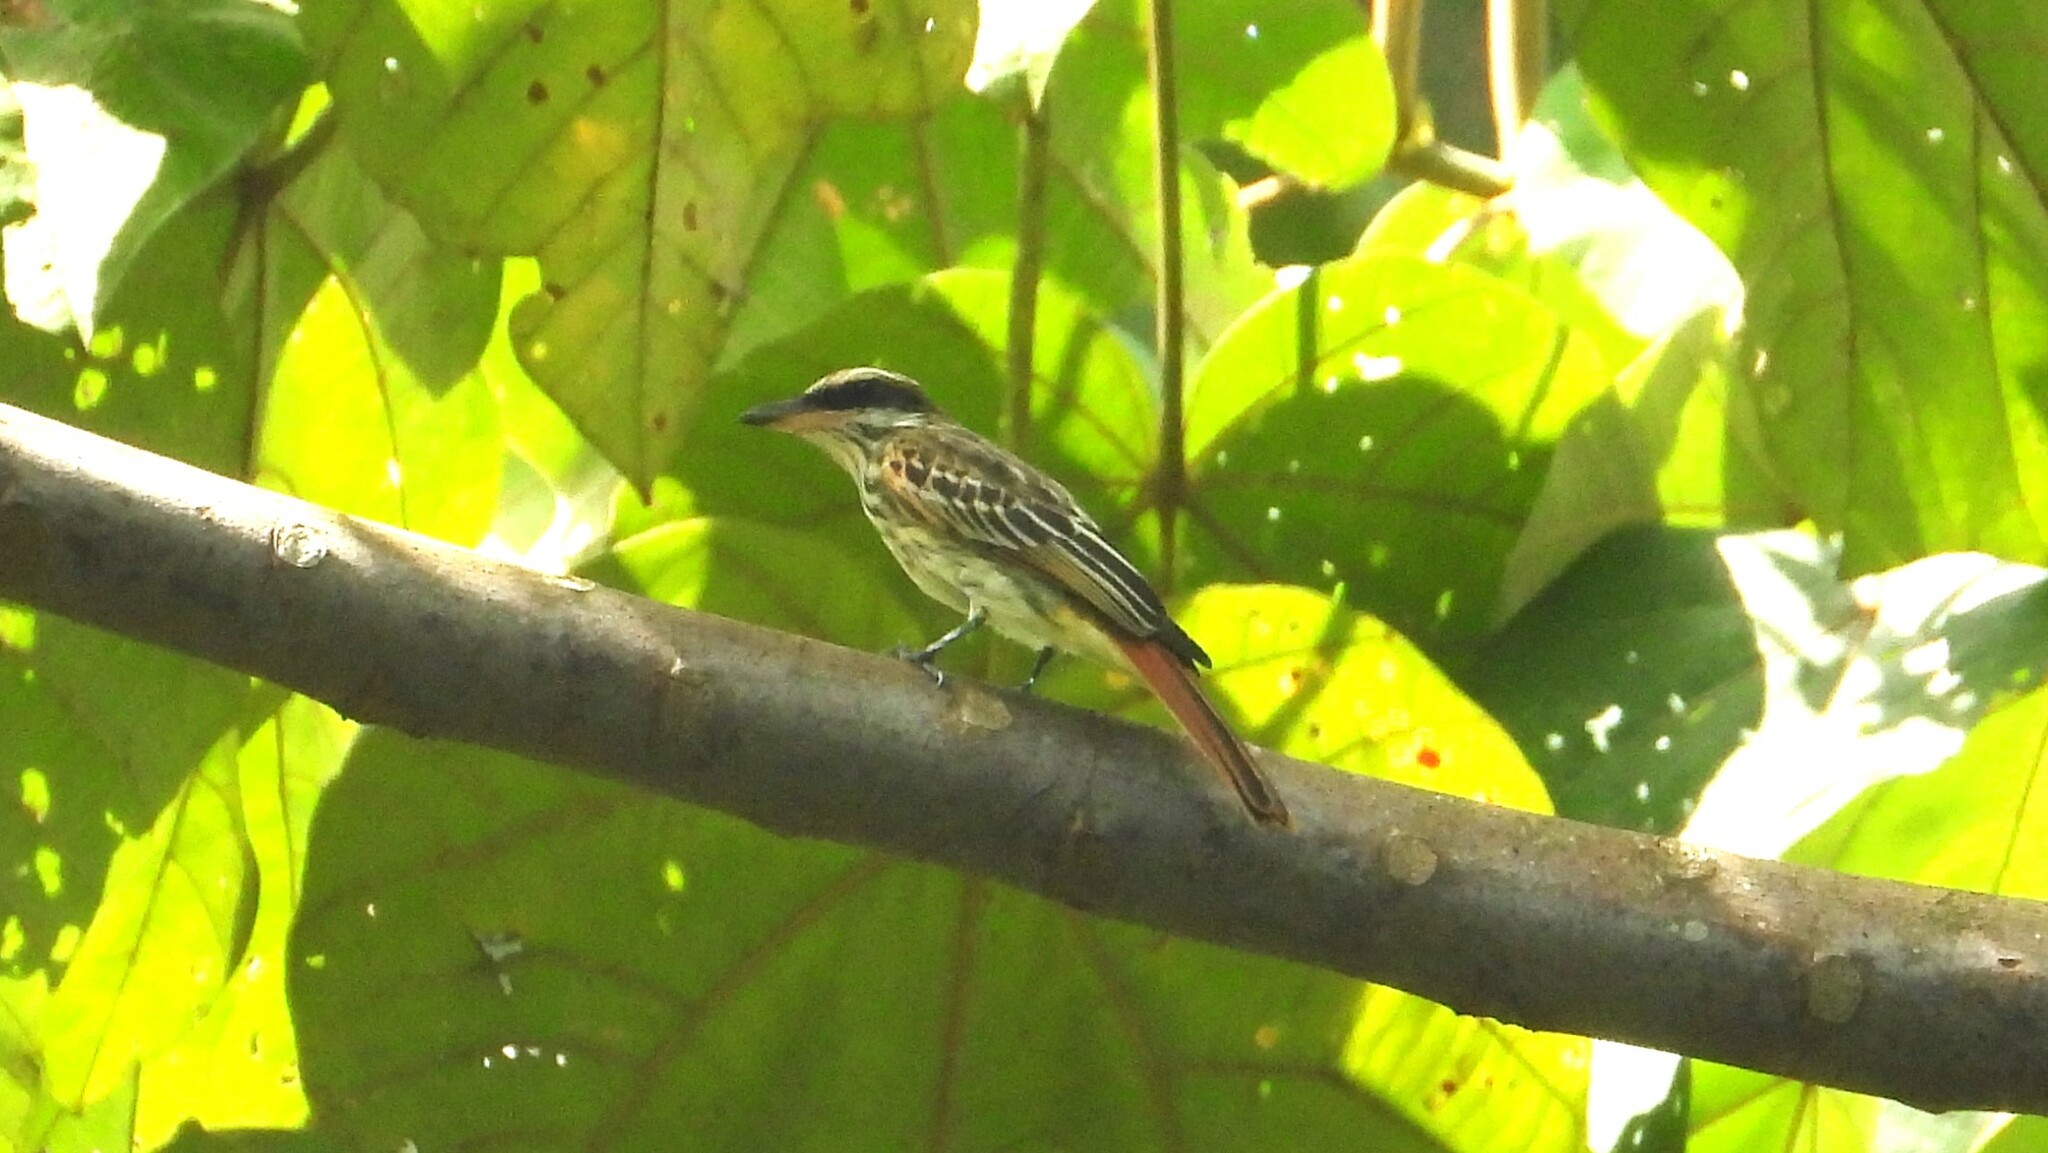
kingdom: Animalia
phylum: Chordata
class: Aves
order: Passeriformes
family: Tyrannidae
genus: Myiodynastes
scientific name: Myiodynastes maculatus
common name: Streaked flycatcher
